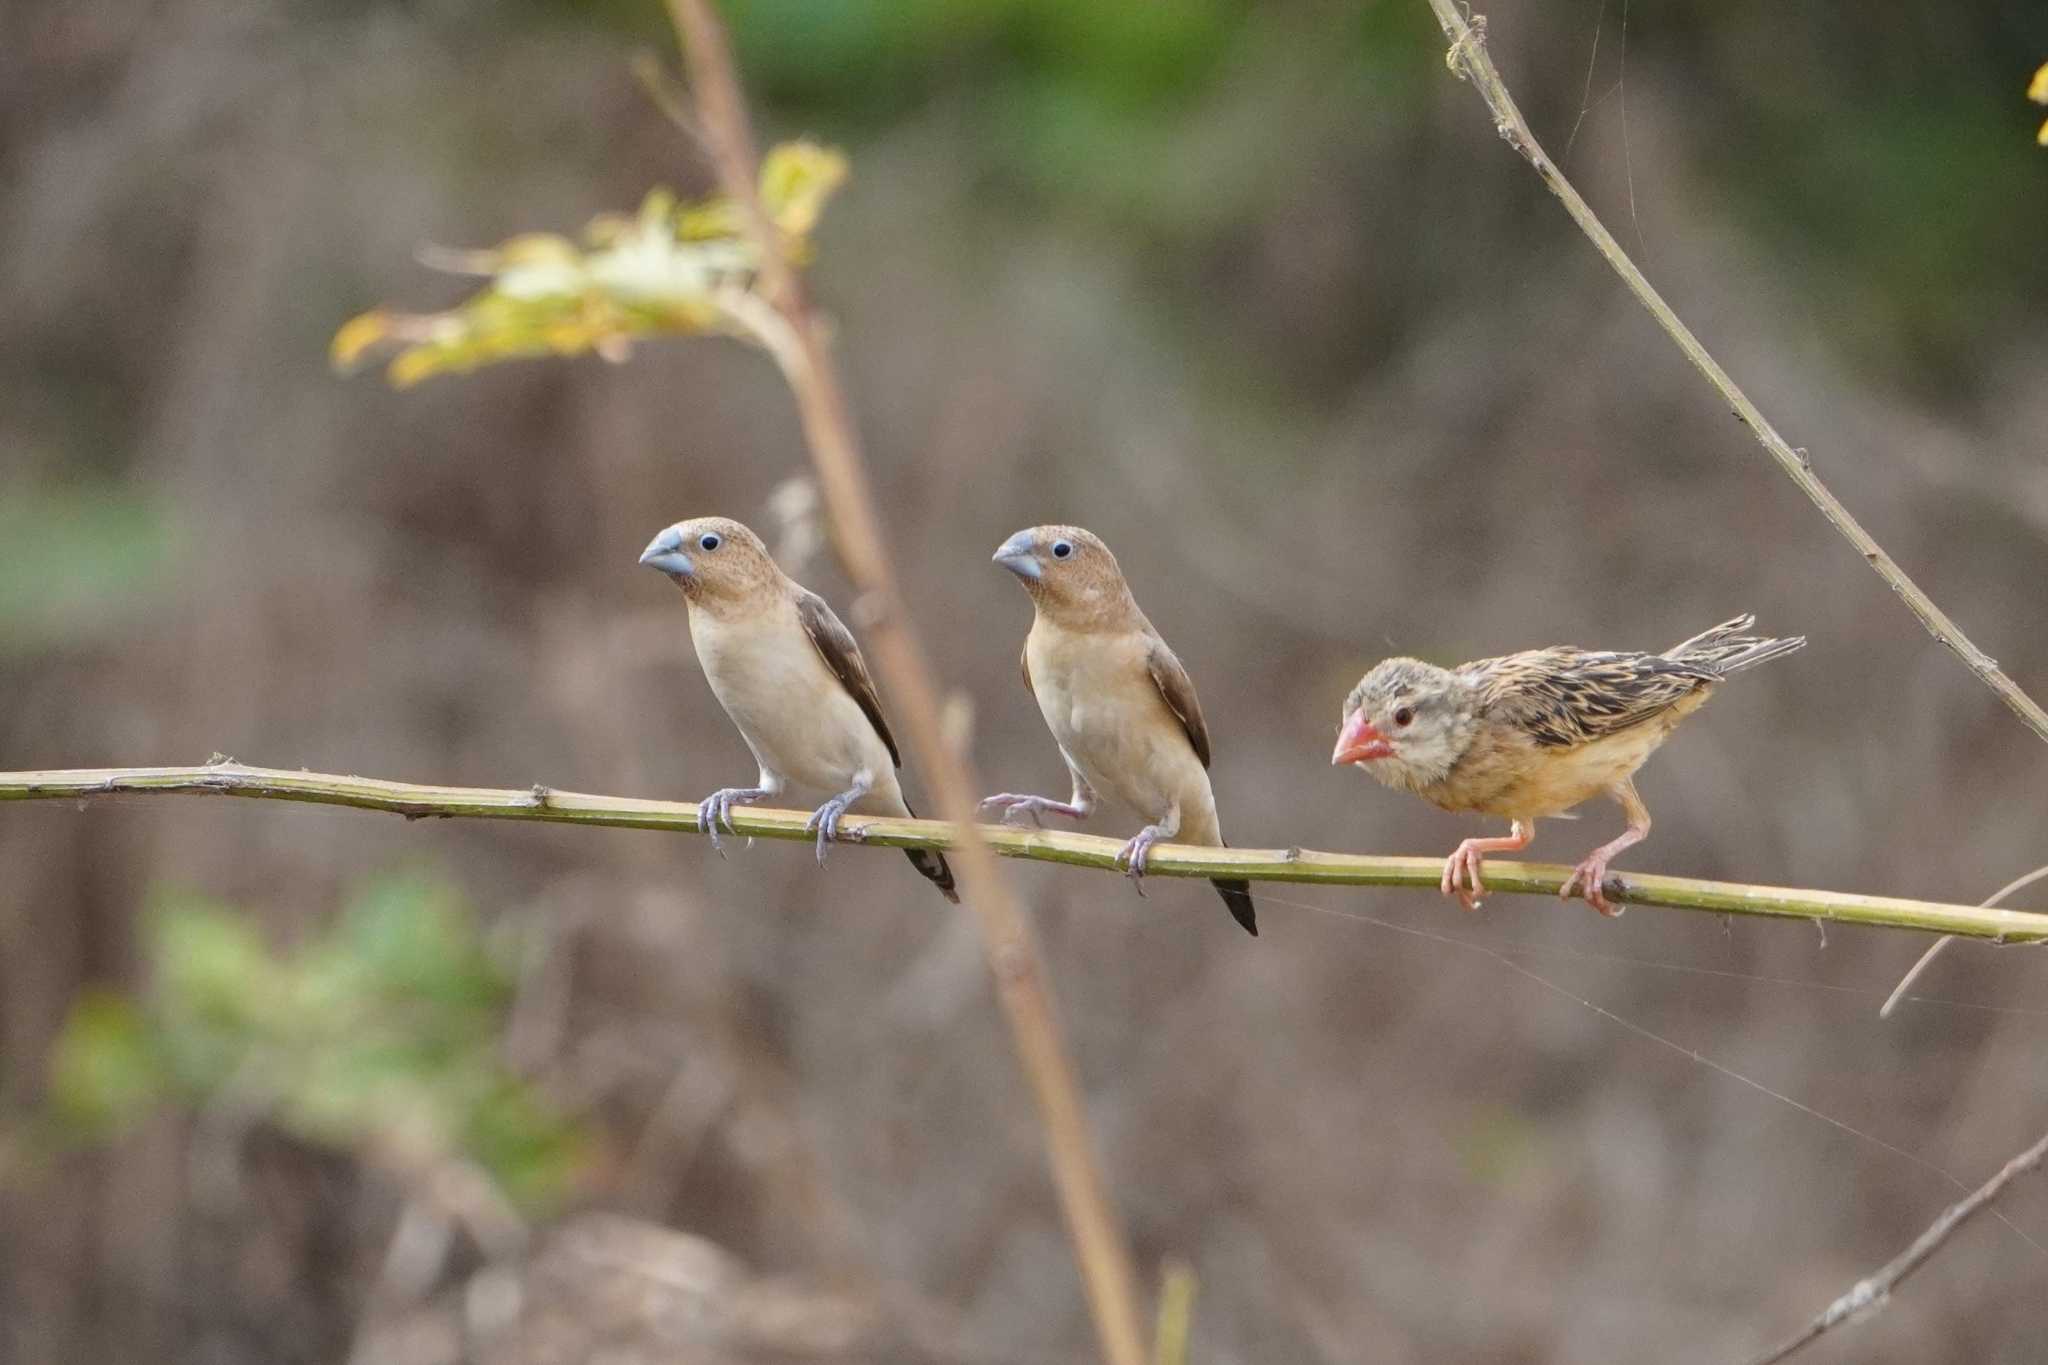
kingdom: Animalia
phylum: Chordata
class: Aves
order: Passeriformes
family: Estrildidae
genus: Euodice
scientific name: Euodice cantans
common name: African silverbill
